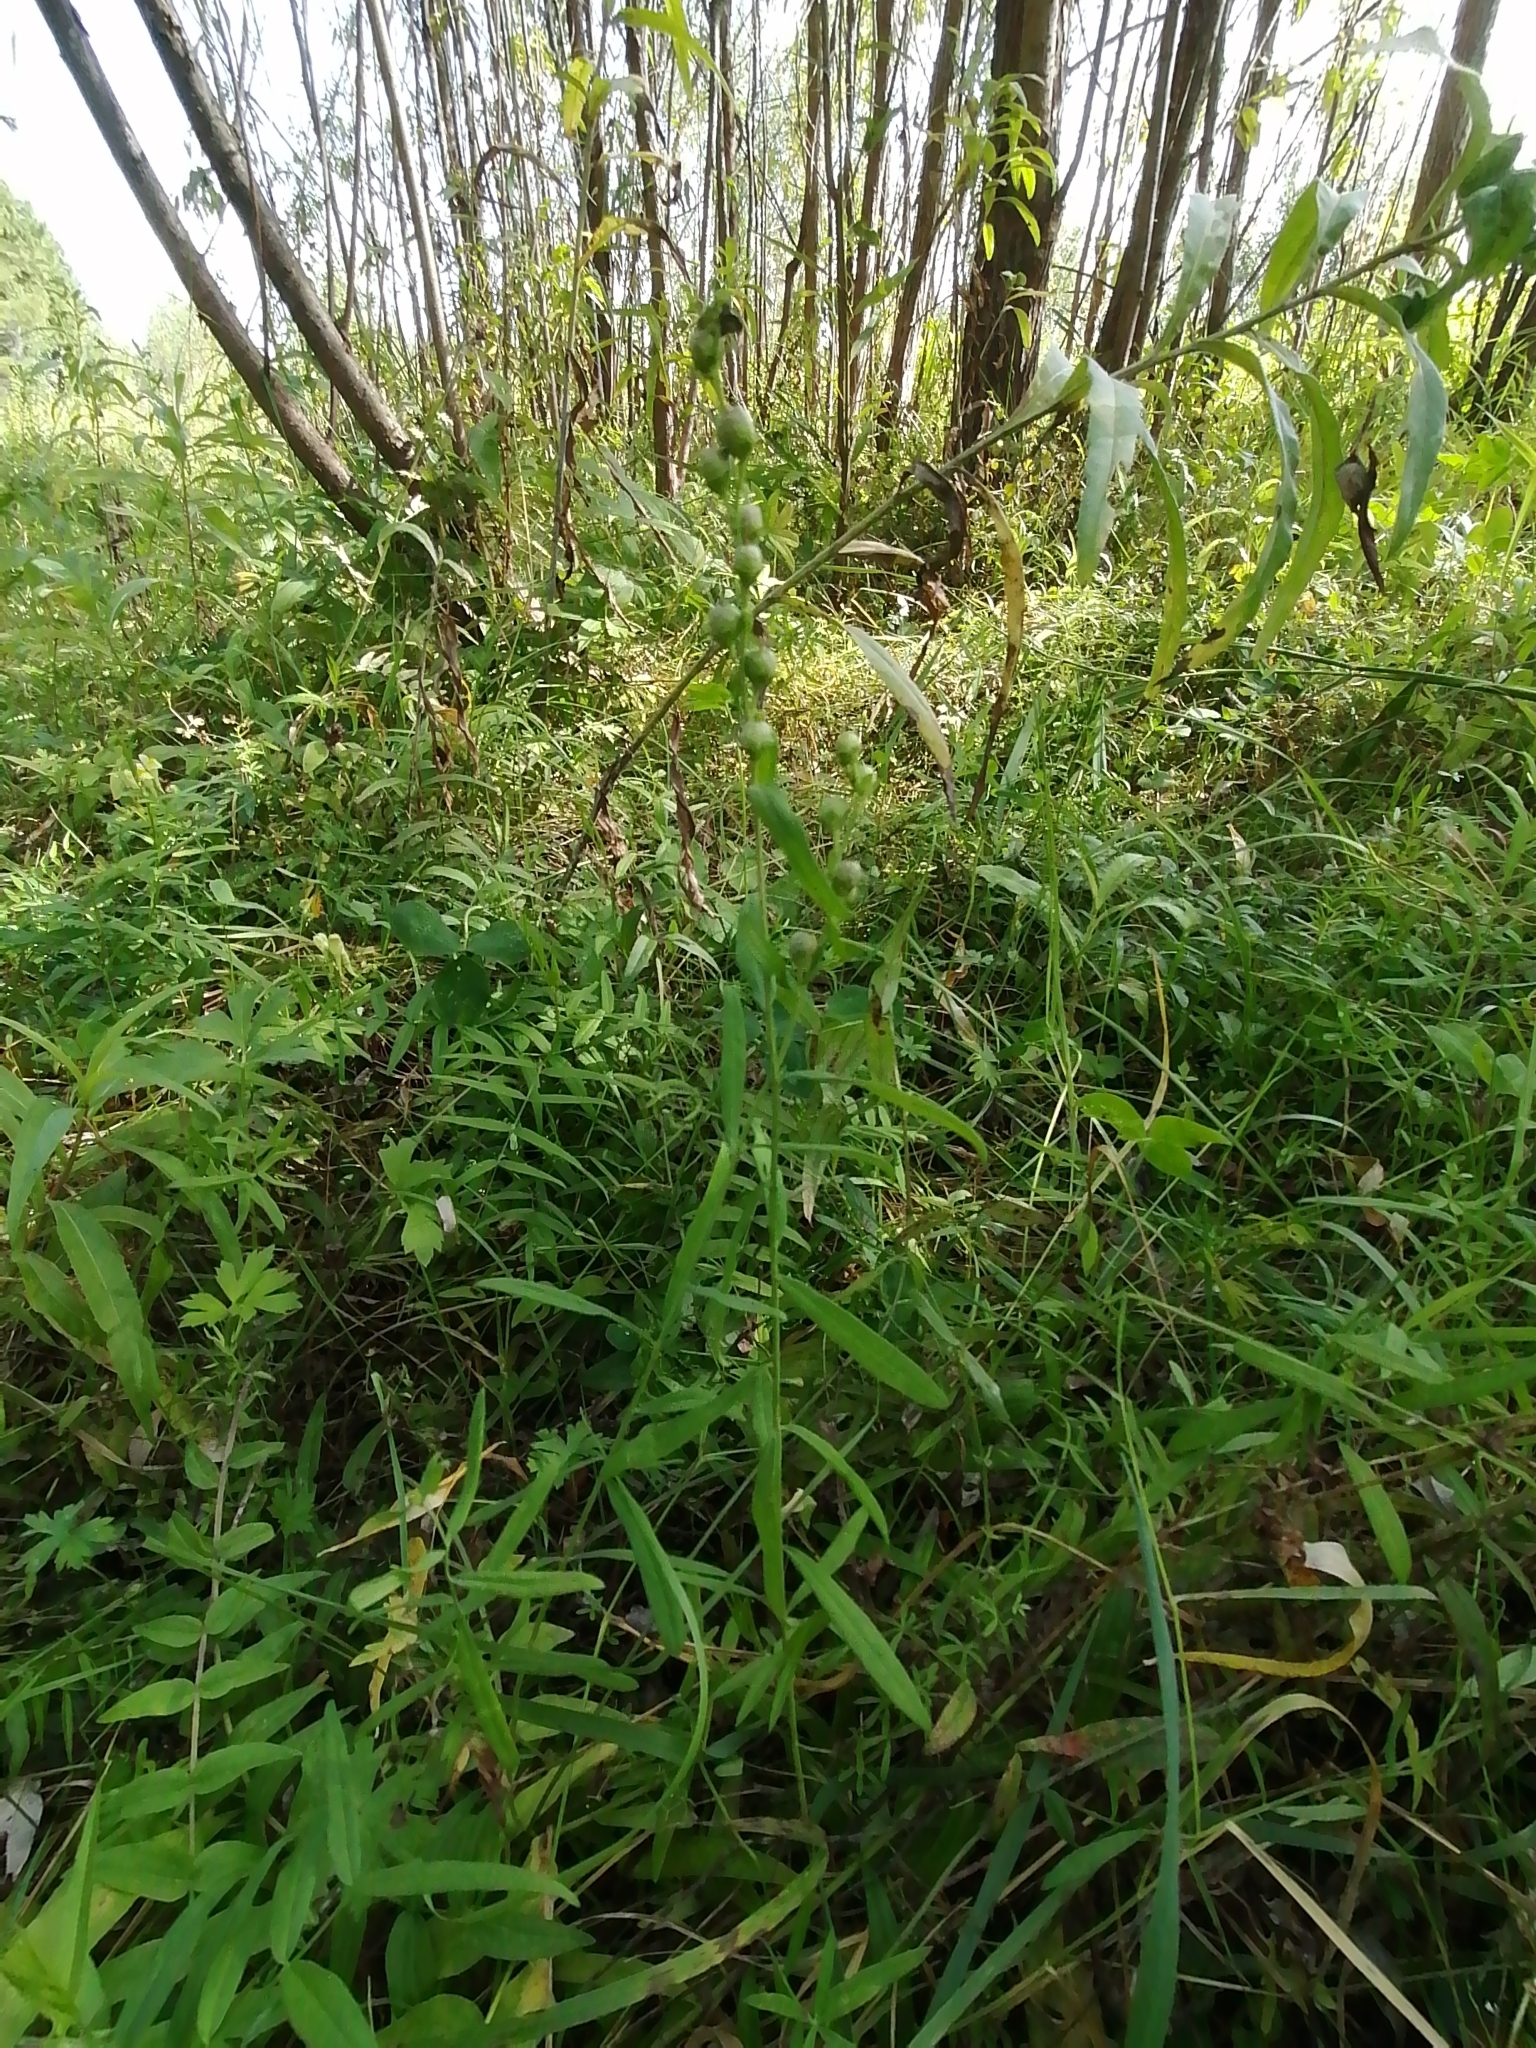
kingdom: Plantae
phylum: Tracheophyta
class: Magnoliopsida
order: Lamiales
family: Plantaginaceae
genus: Linaria
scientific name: Linaria vulgaris
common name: Butter and eggs
